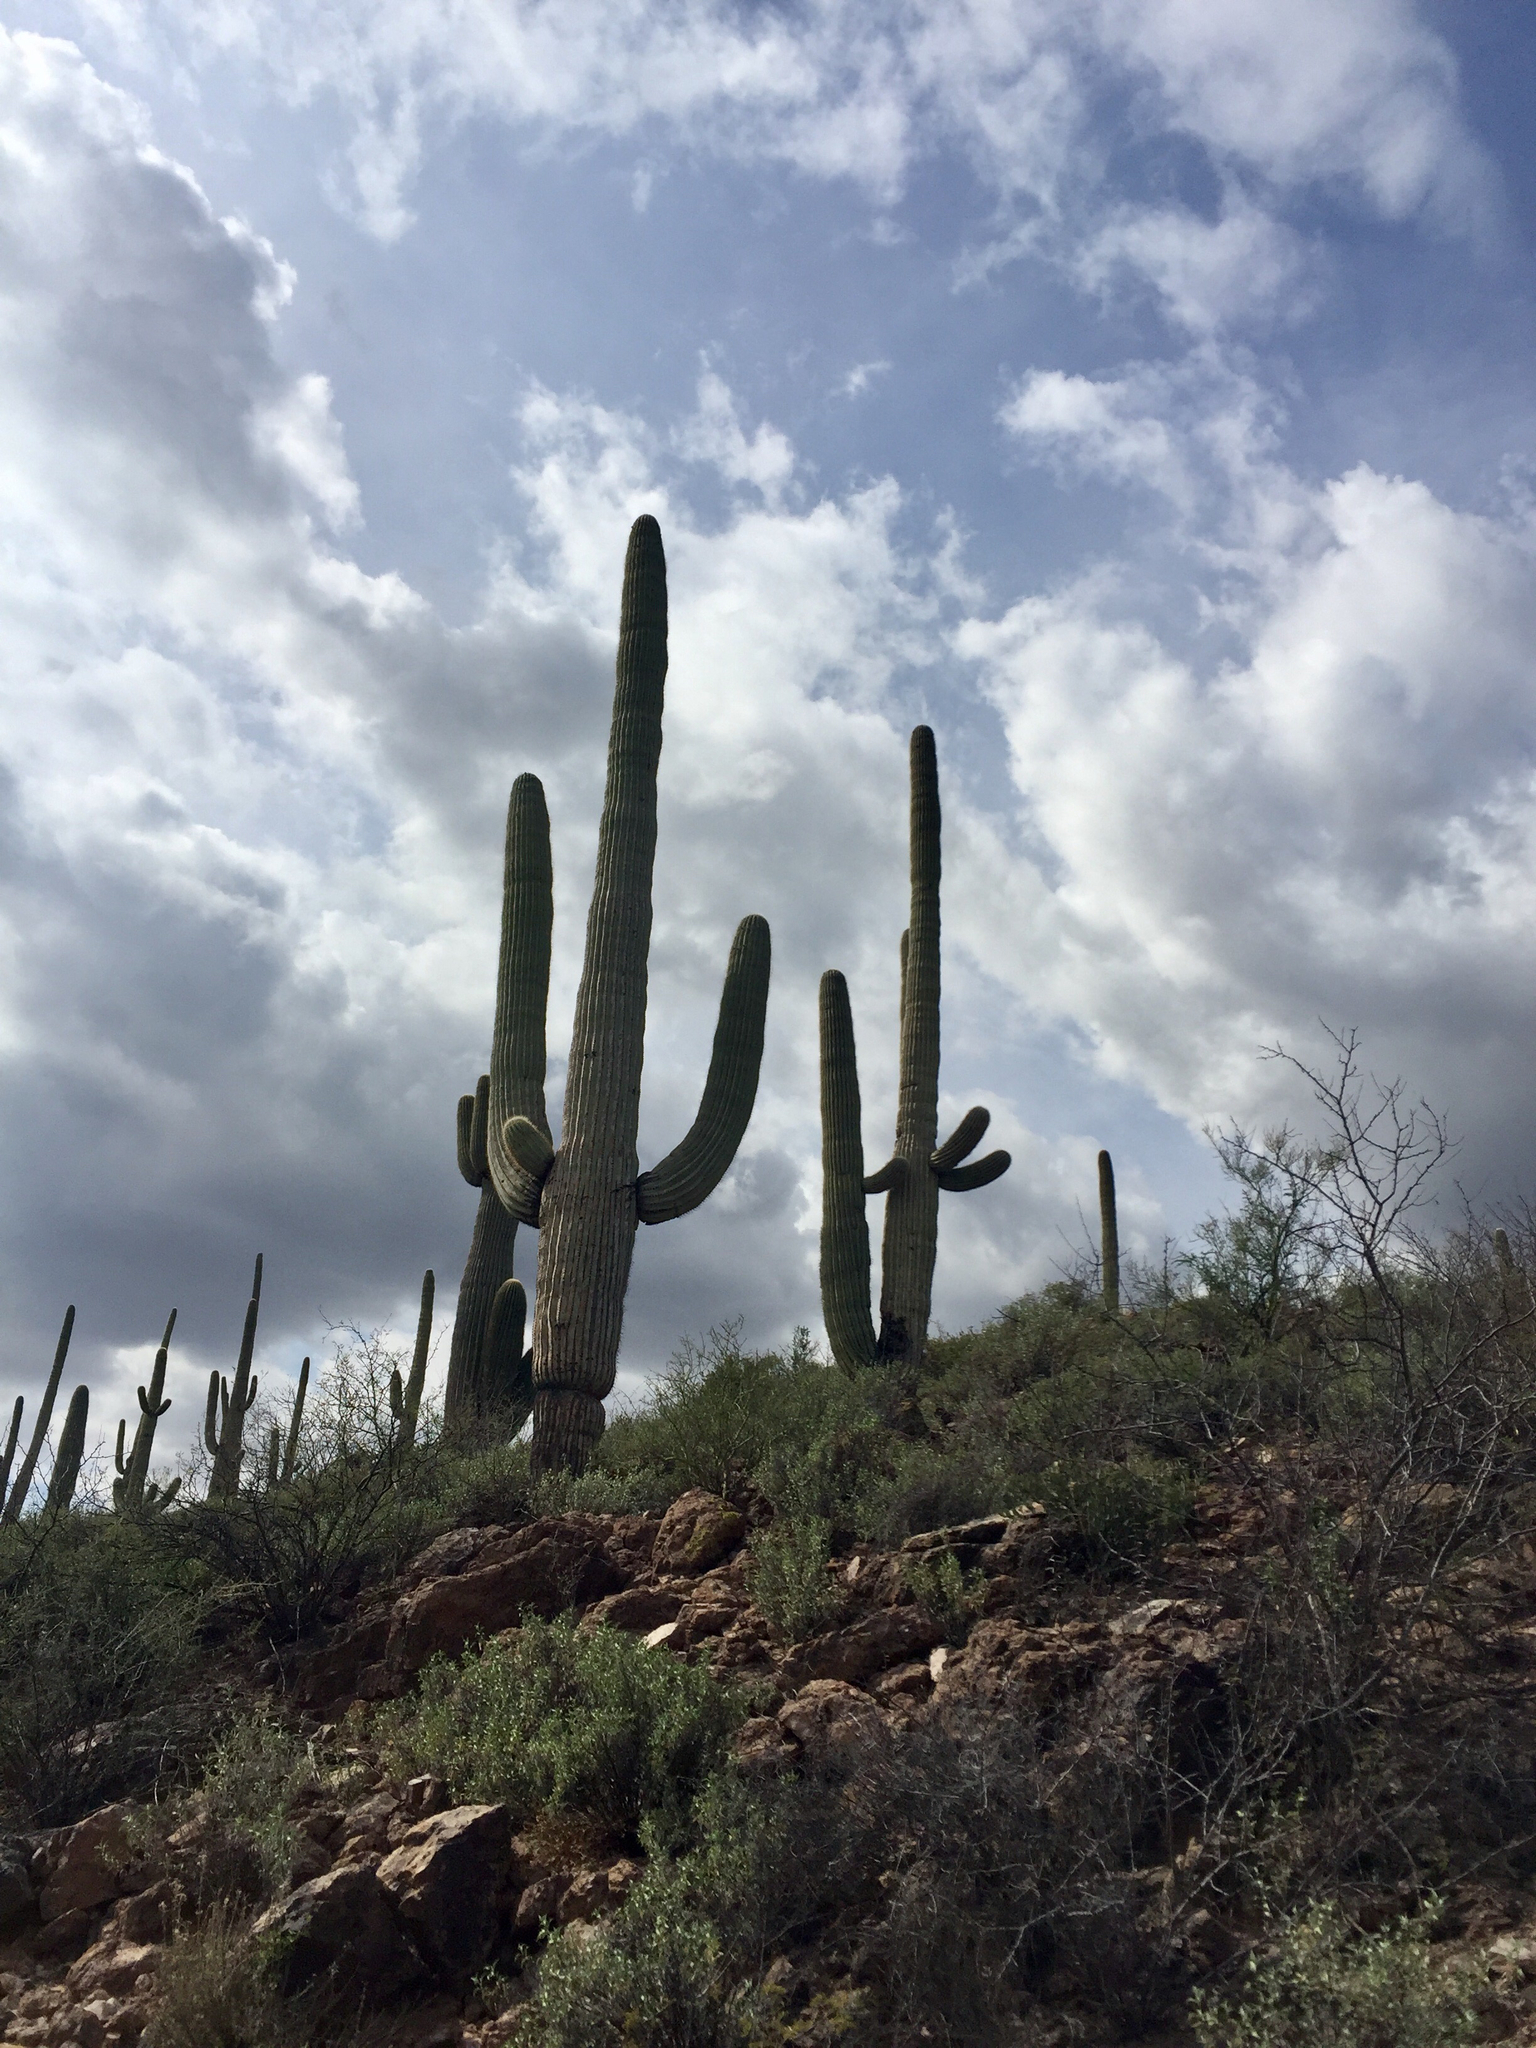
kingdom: Plantae
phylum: Tracheophyta
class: Magnoliopsida
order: Caryophyllales
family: Cactaceae
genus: Carnegiea
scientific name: Carnegiea gigantea
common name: Saguaro
